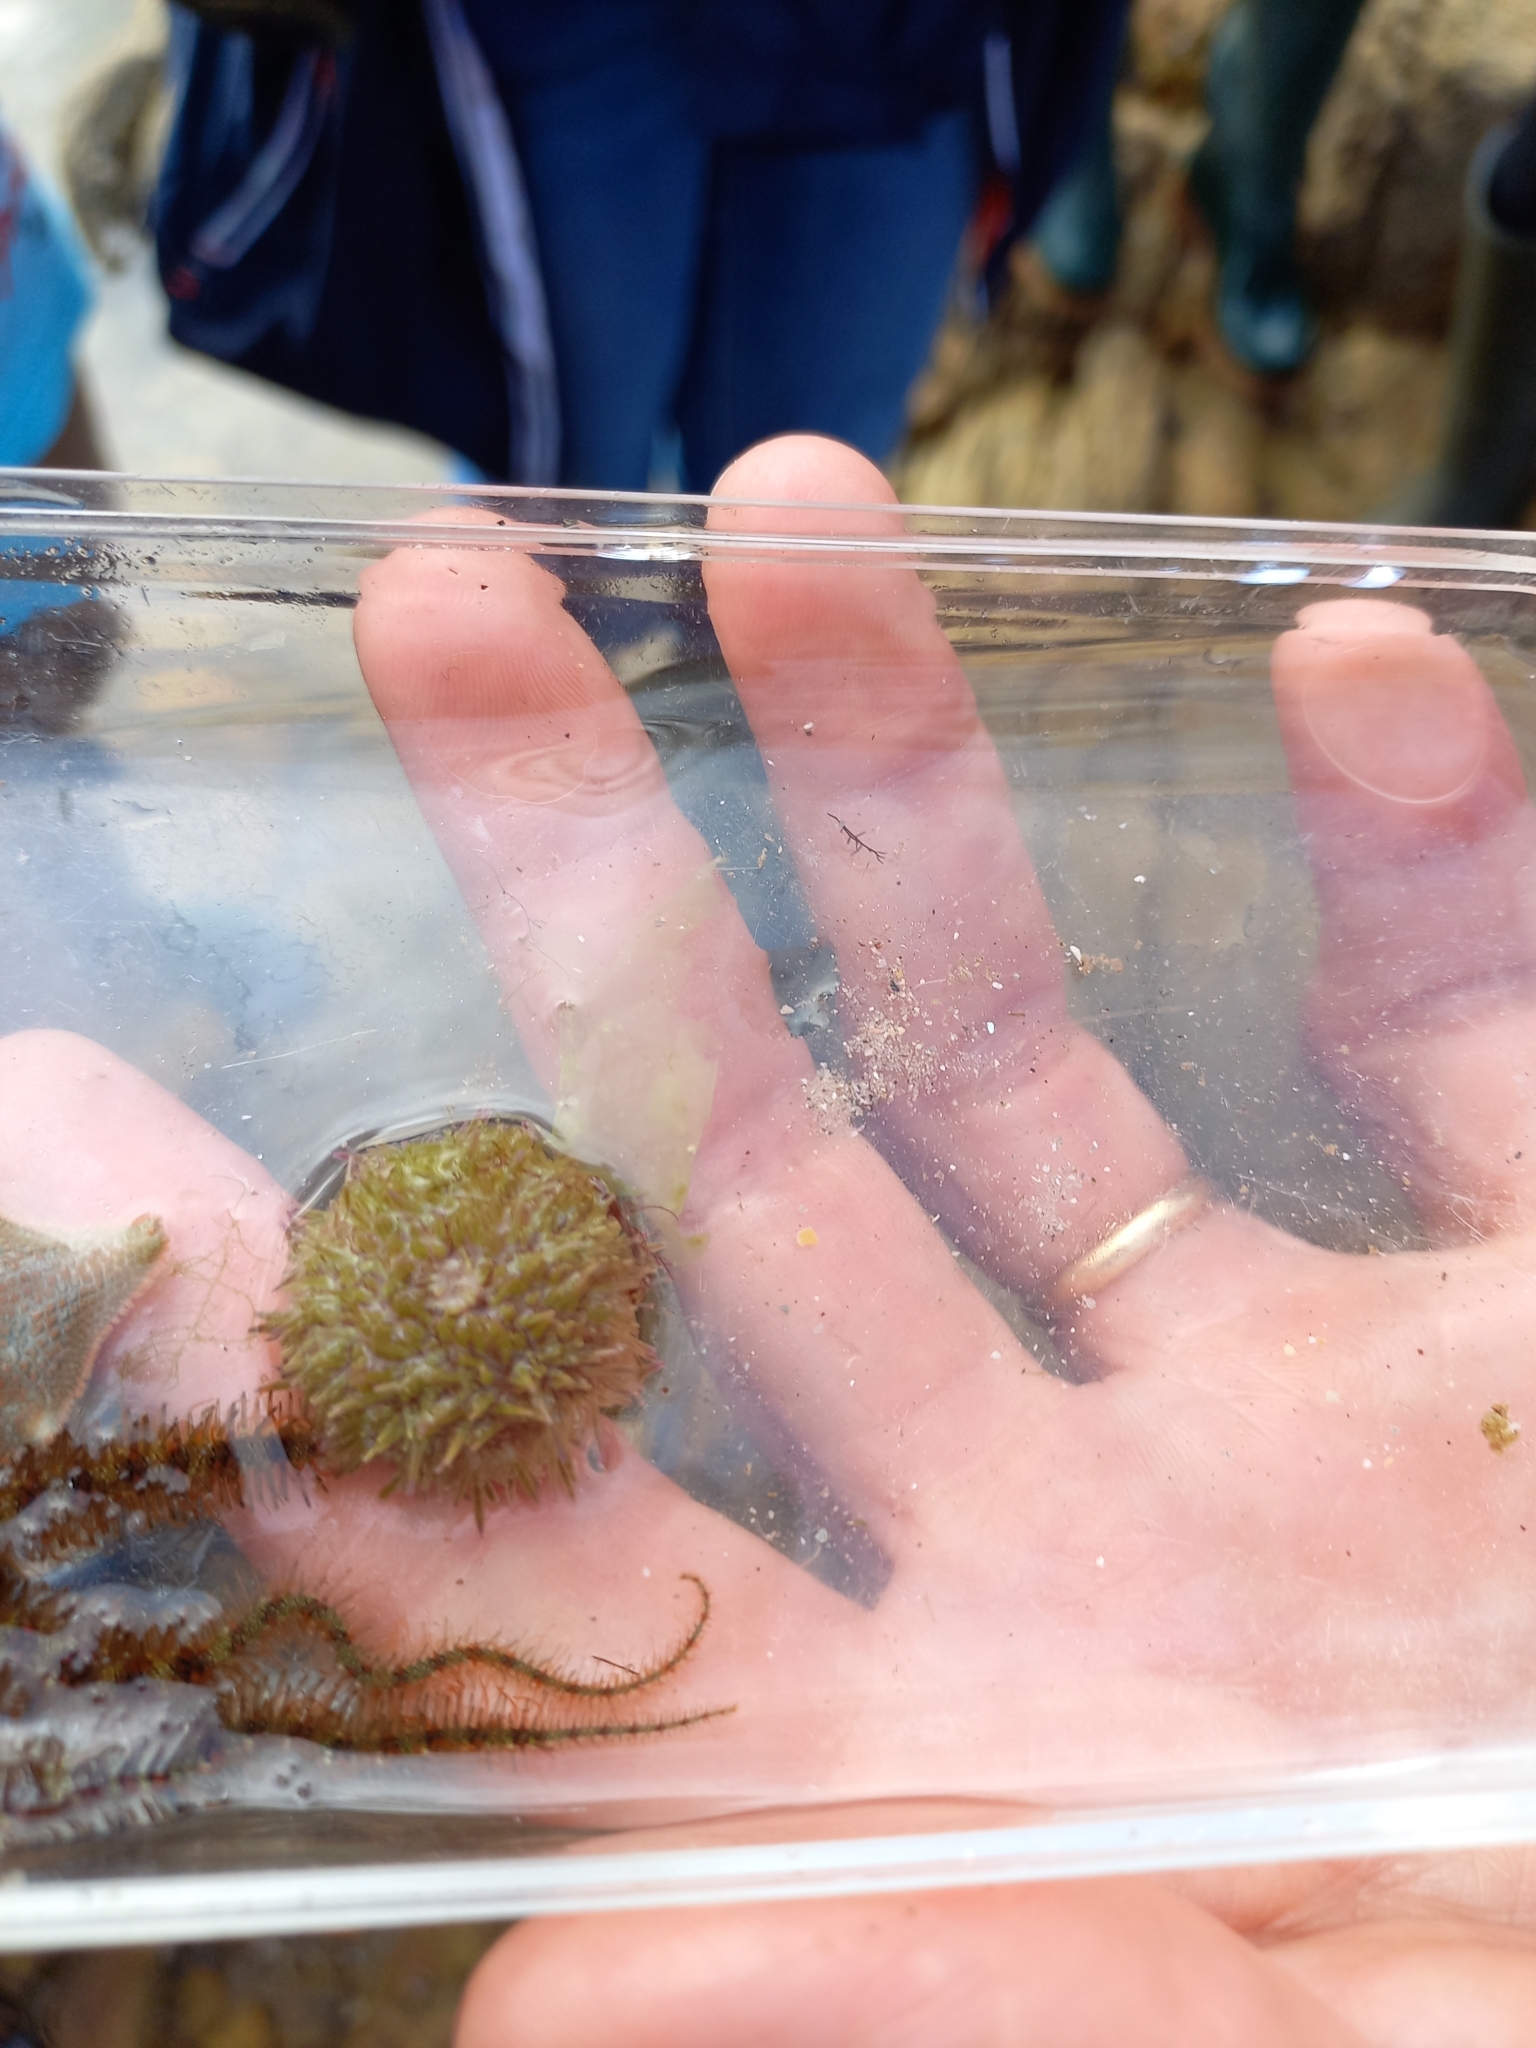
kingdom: Animalia
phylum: Echinodermata
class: Echinoidea
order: Camarodonta
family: Parechinidae
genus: Psammechinus
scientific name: Psammechinus miliaris
